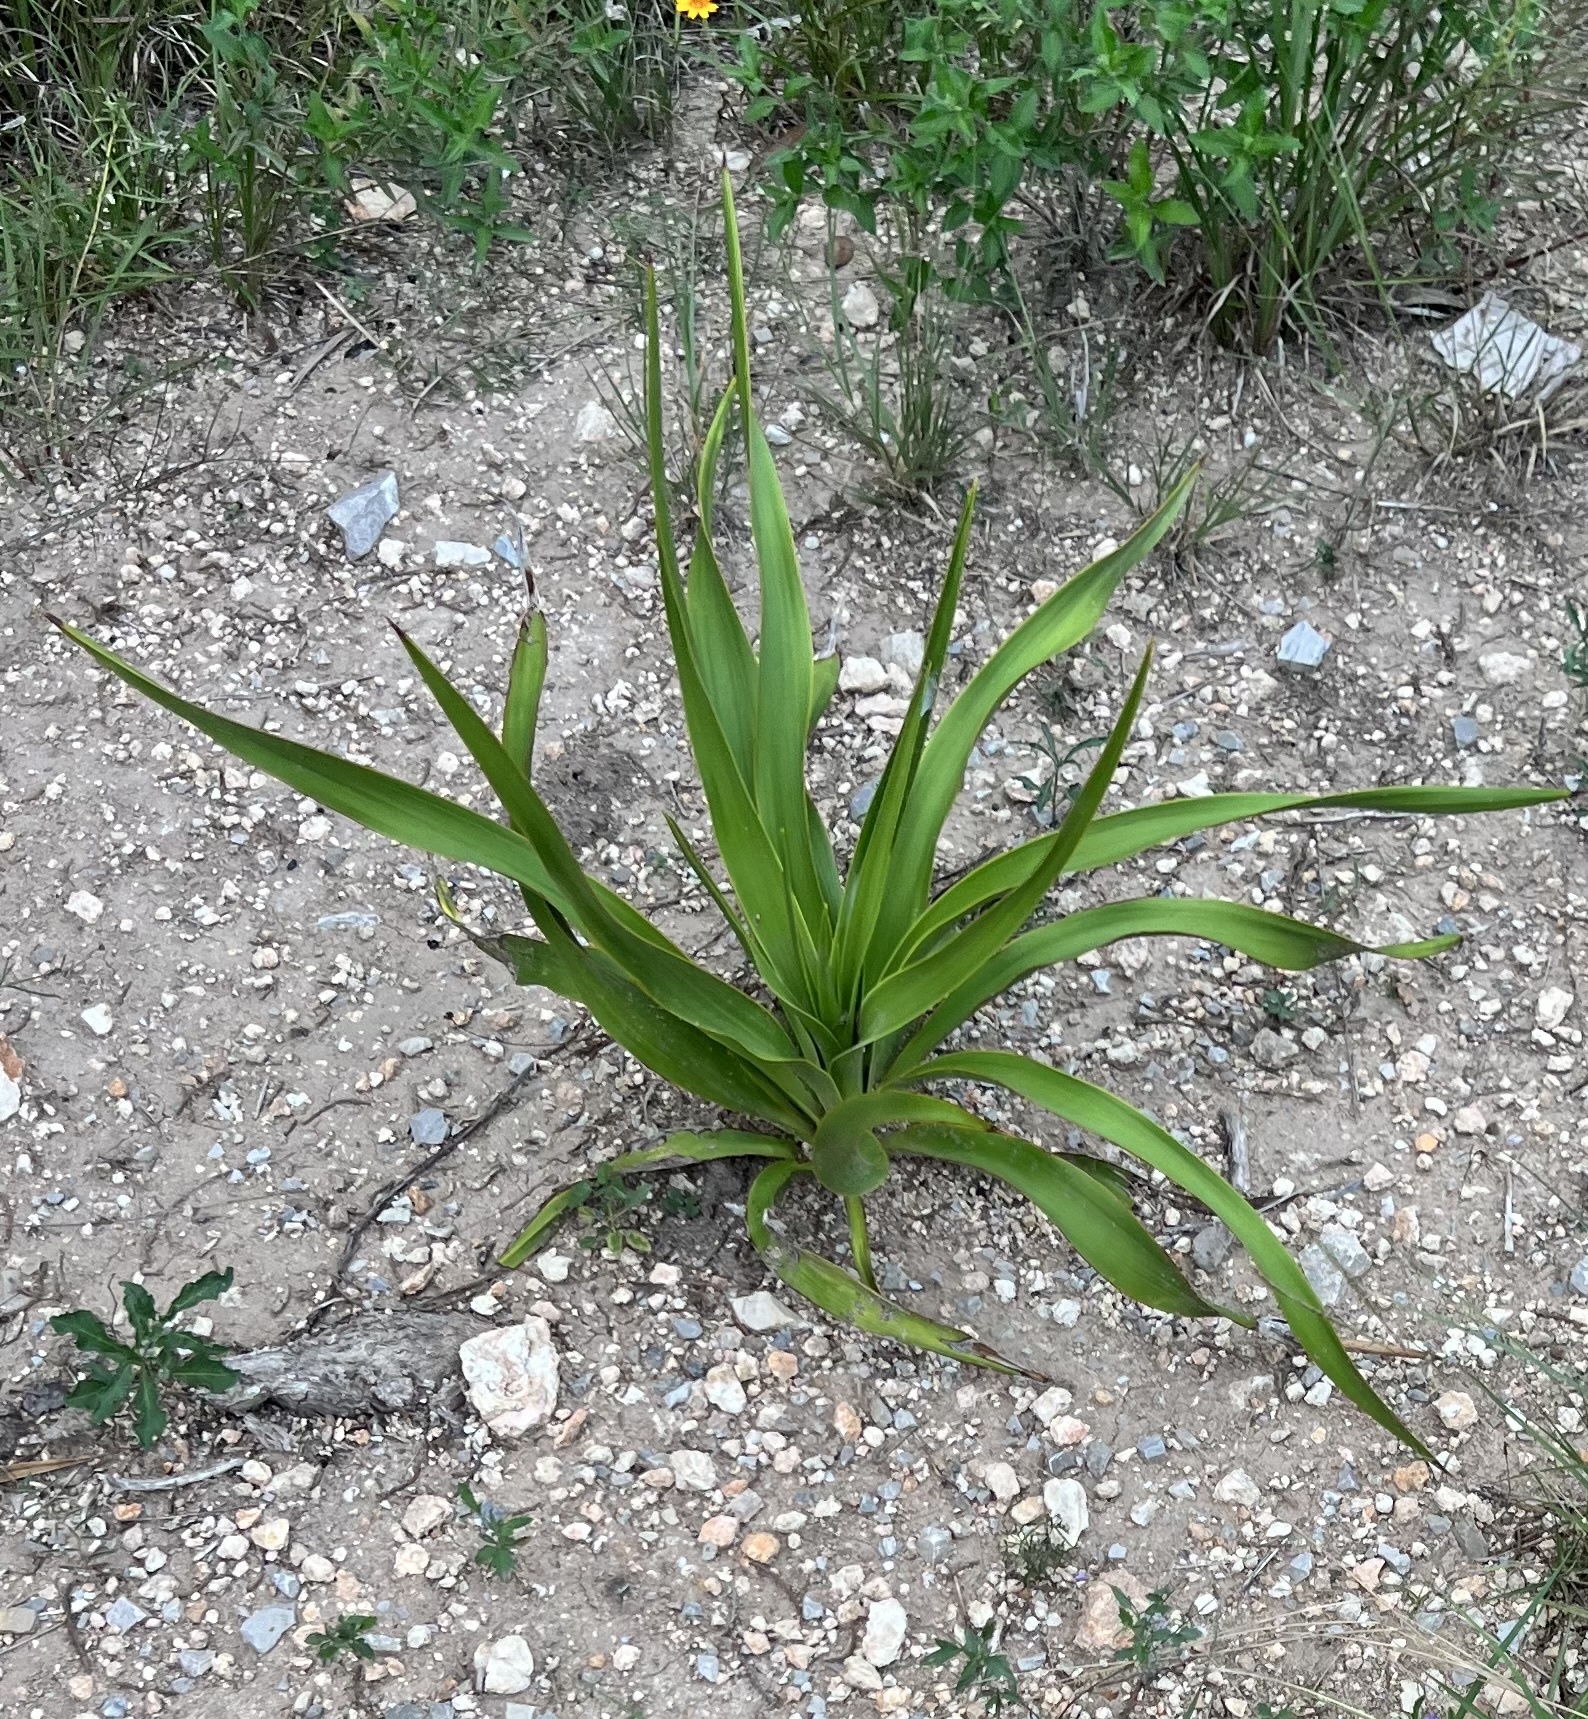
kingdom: Plantae
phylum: Tracheophyta
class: Liliopsida
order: Asparagales
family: Asparagaceae
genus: Yucca
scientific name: Yucca rupicola
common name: Twisted-leaf spanish-dagger
